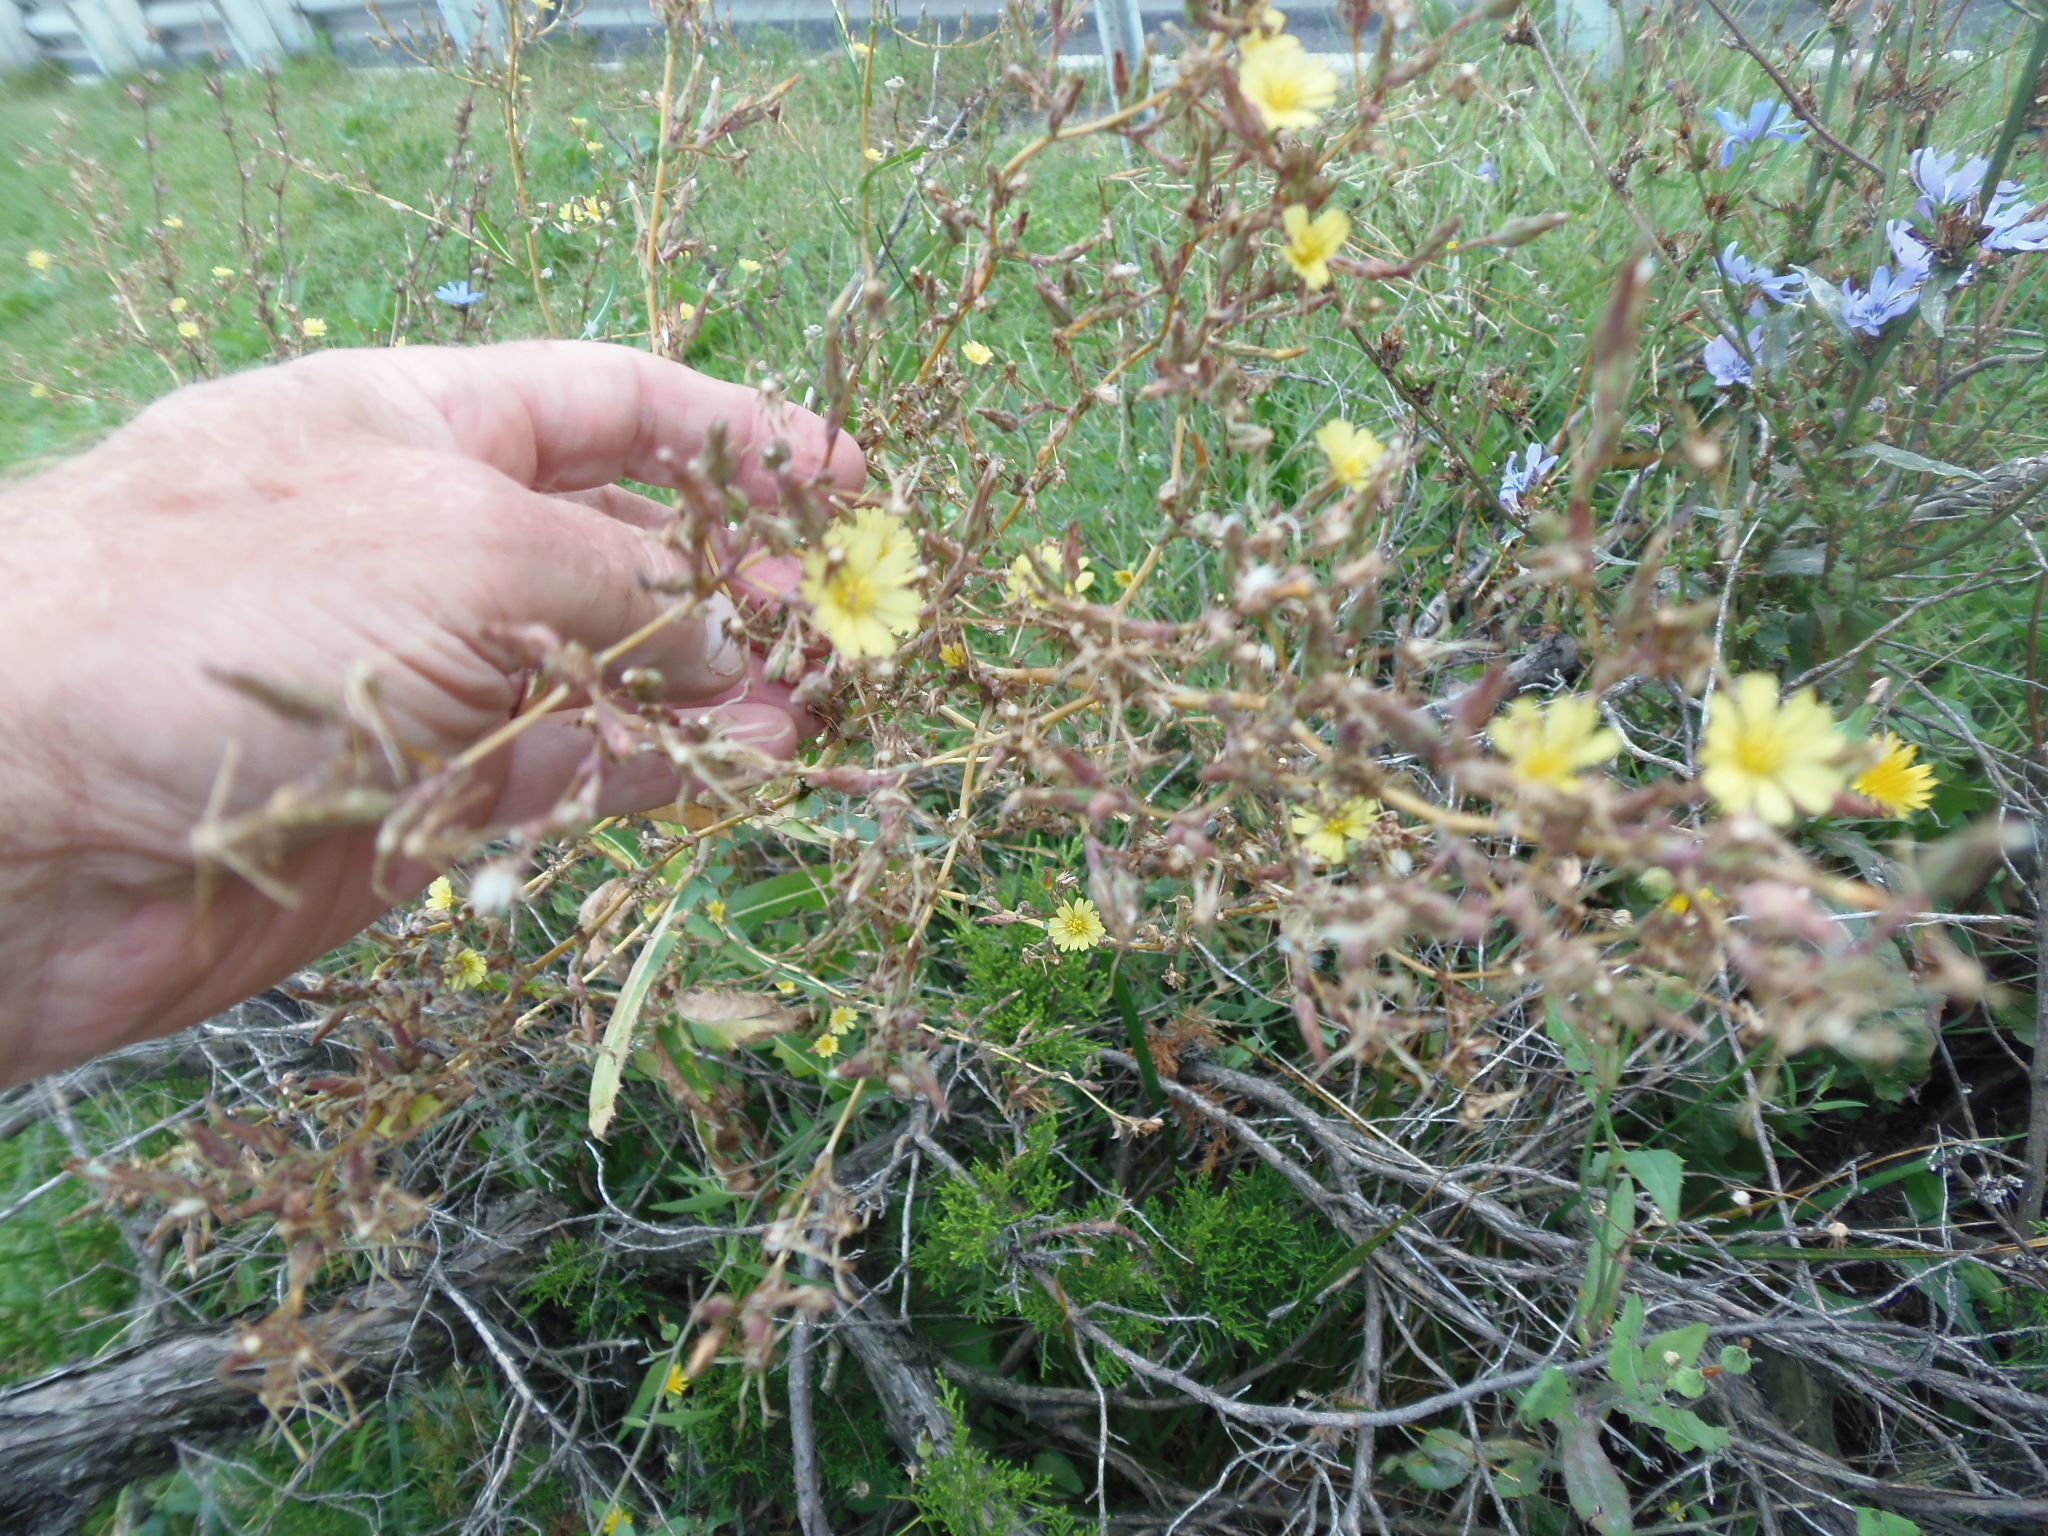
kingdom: Plantae
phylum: Tracheophyta
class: Magnoliopsida
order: Asterales
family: Asteraceae
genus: Lactuca
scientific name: Lactuca serriola
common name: Prickly lettuce
